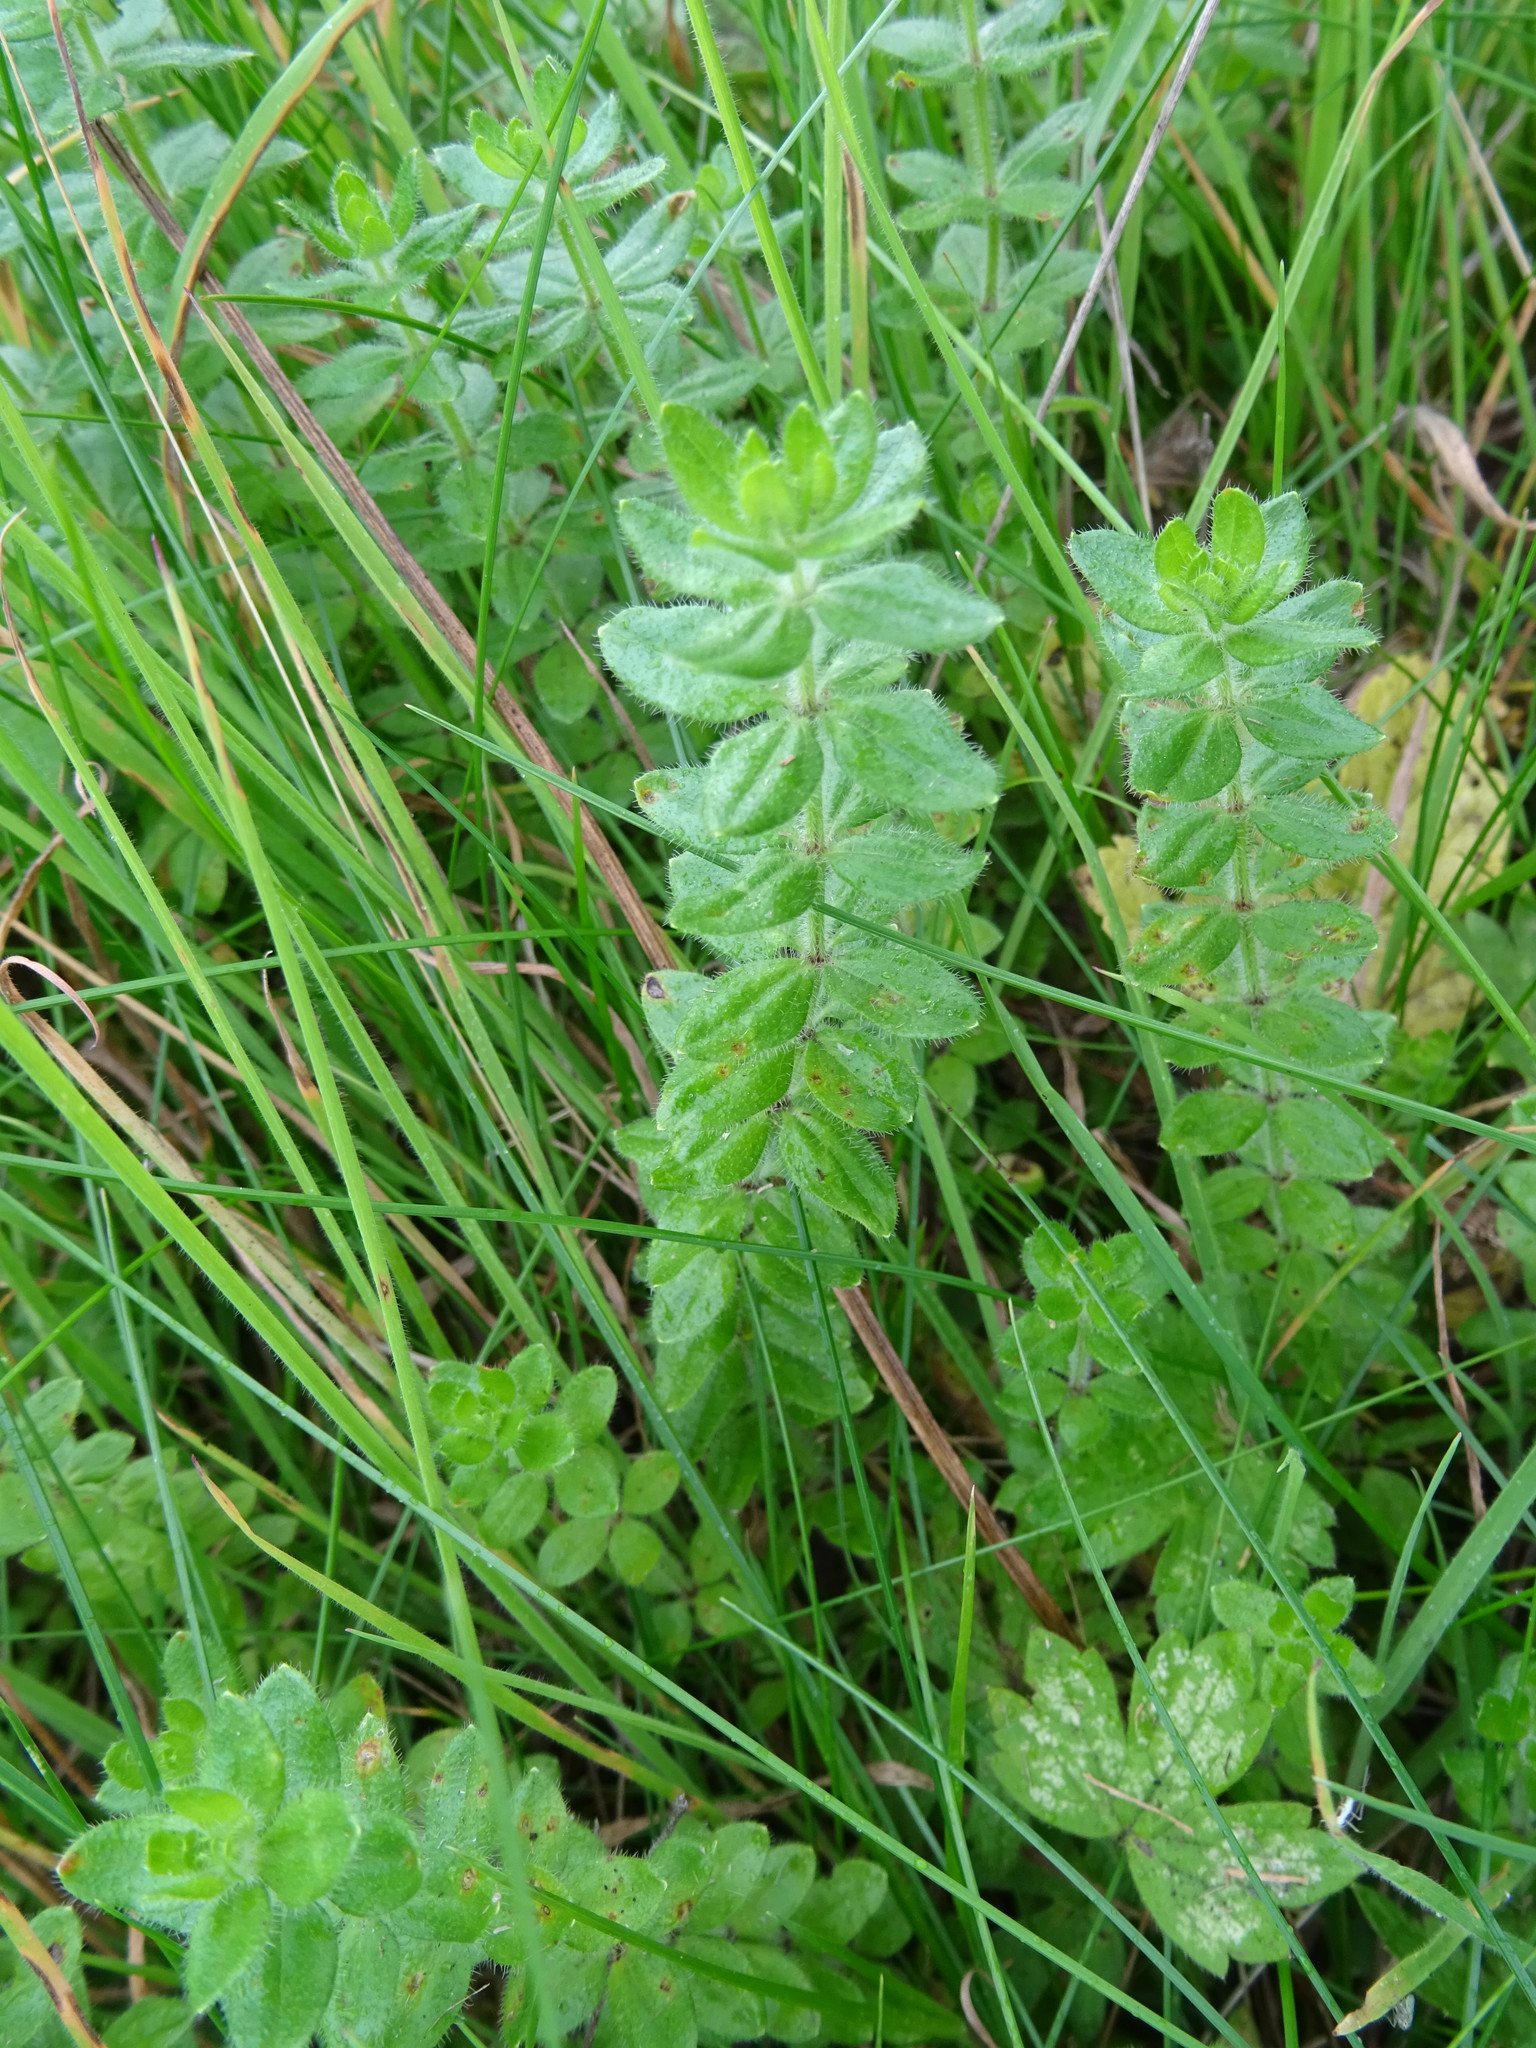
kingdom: Plantae
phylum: Tracheophyta
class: Magnoliopsida
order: Gentianales
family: Rubiaceae
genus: Cruciata
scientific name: Cruciata laevipes
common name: Crosswort
